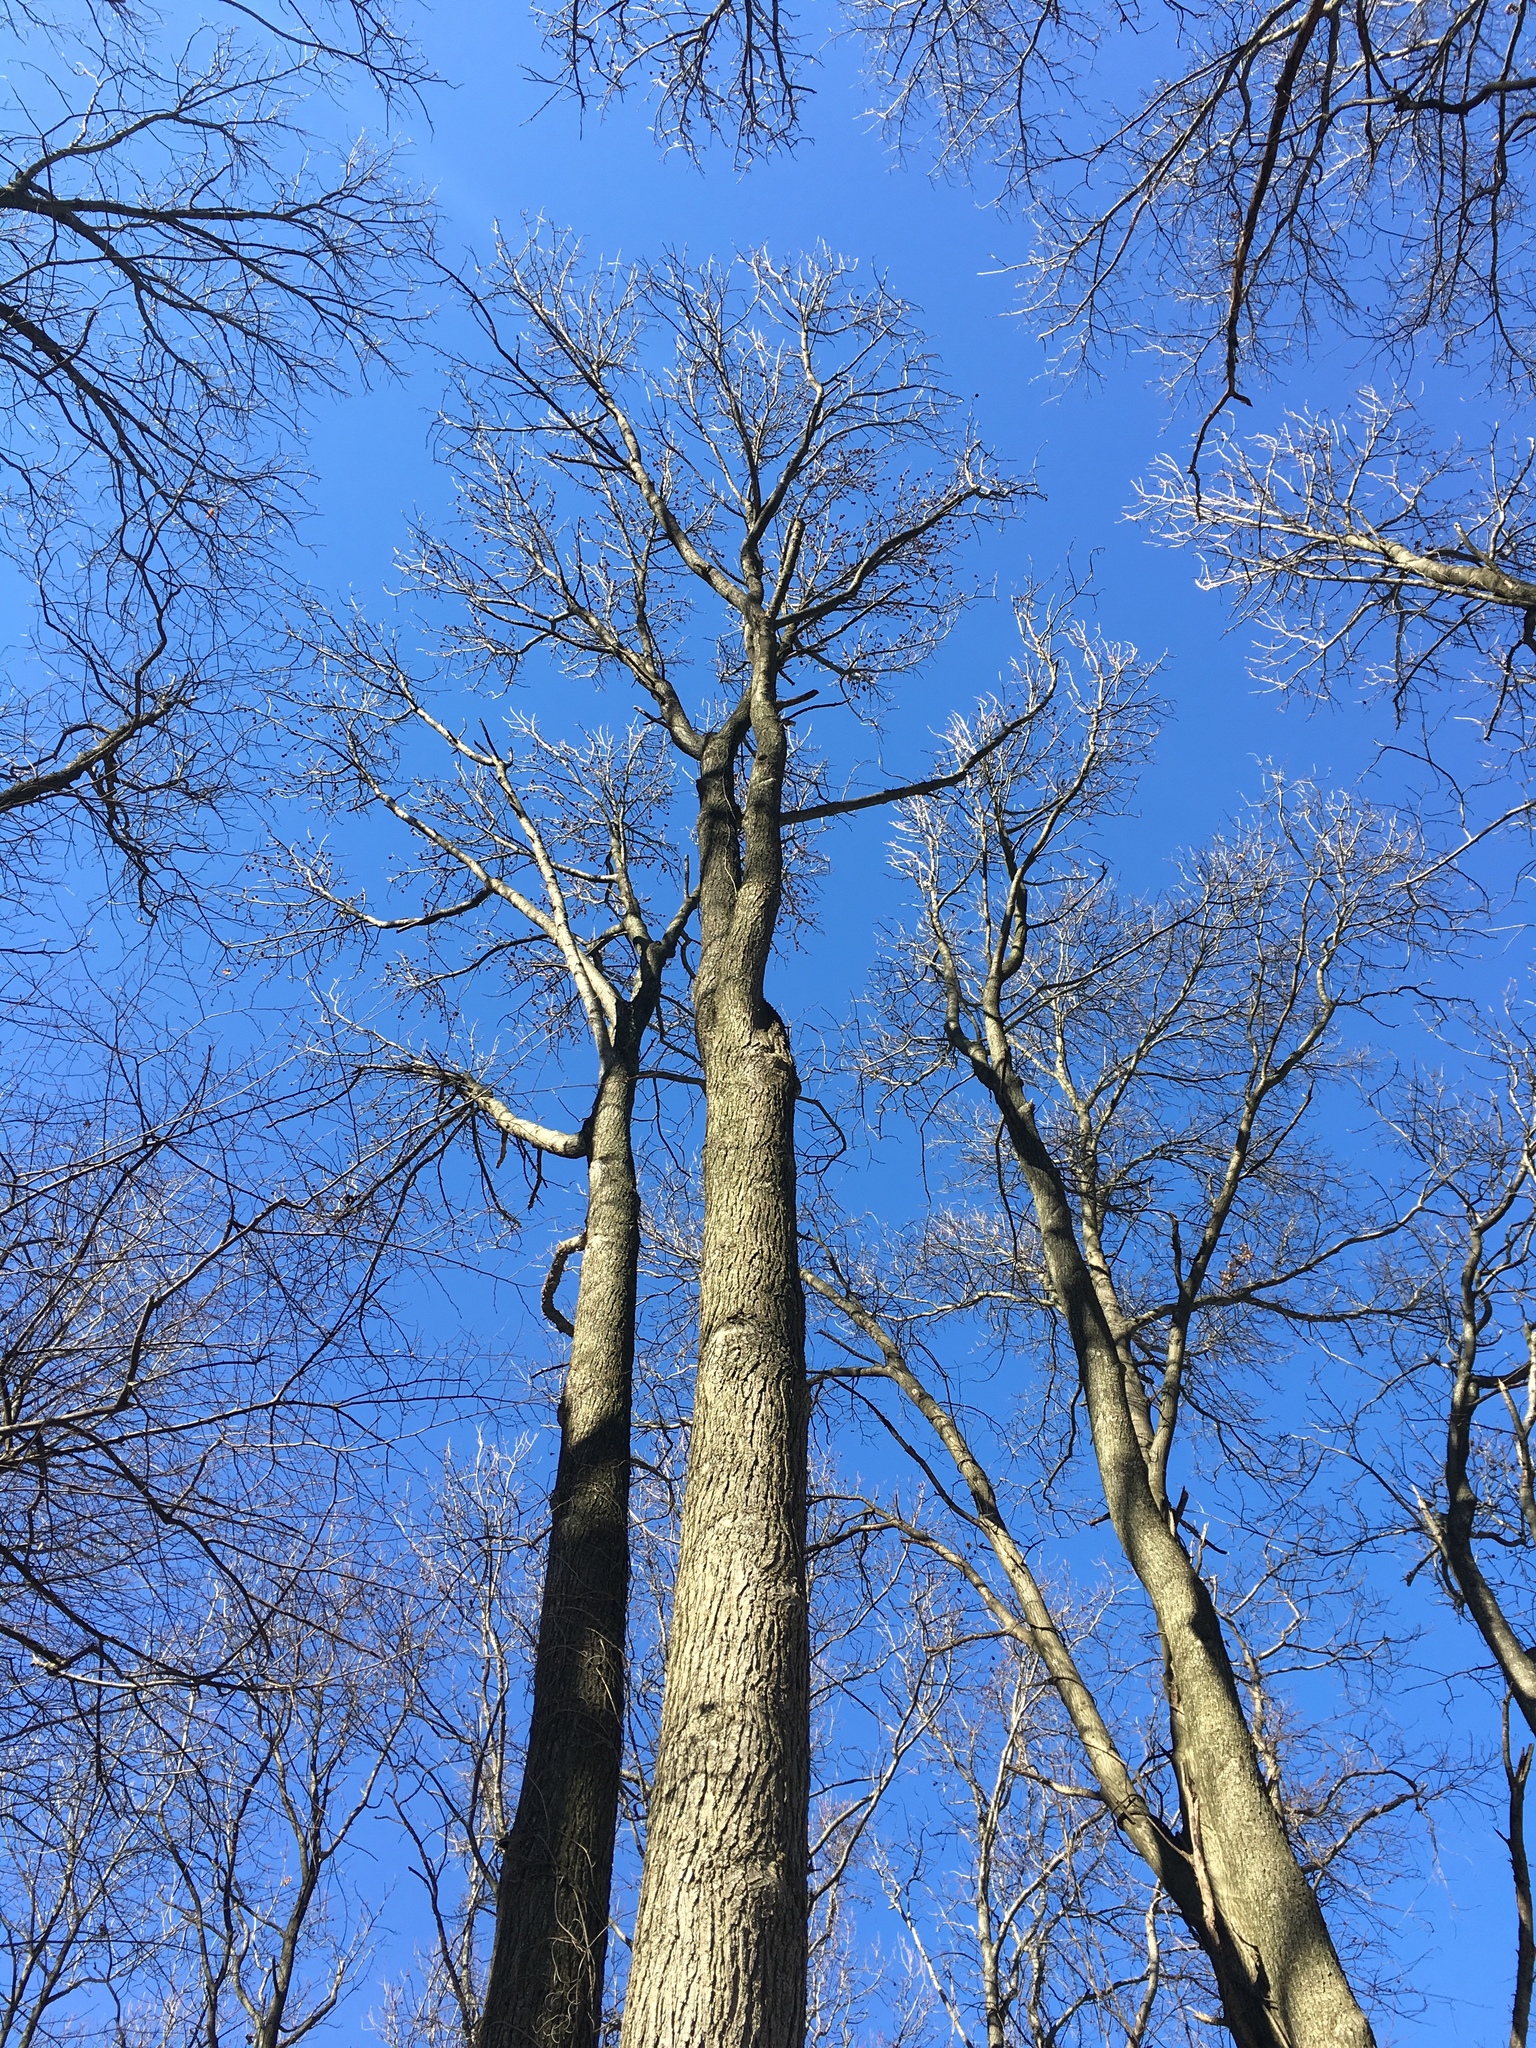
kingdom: Plantae
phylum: Tracheophyta
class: Magnoliopsida
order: Saxifragales
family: Altingiaceae
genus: Liquidambar
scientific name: Liquidambar styraciflua
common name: Sweet gum
